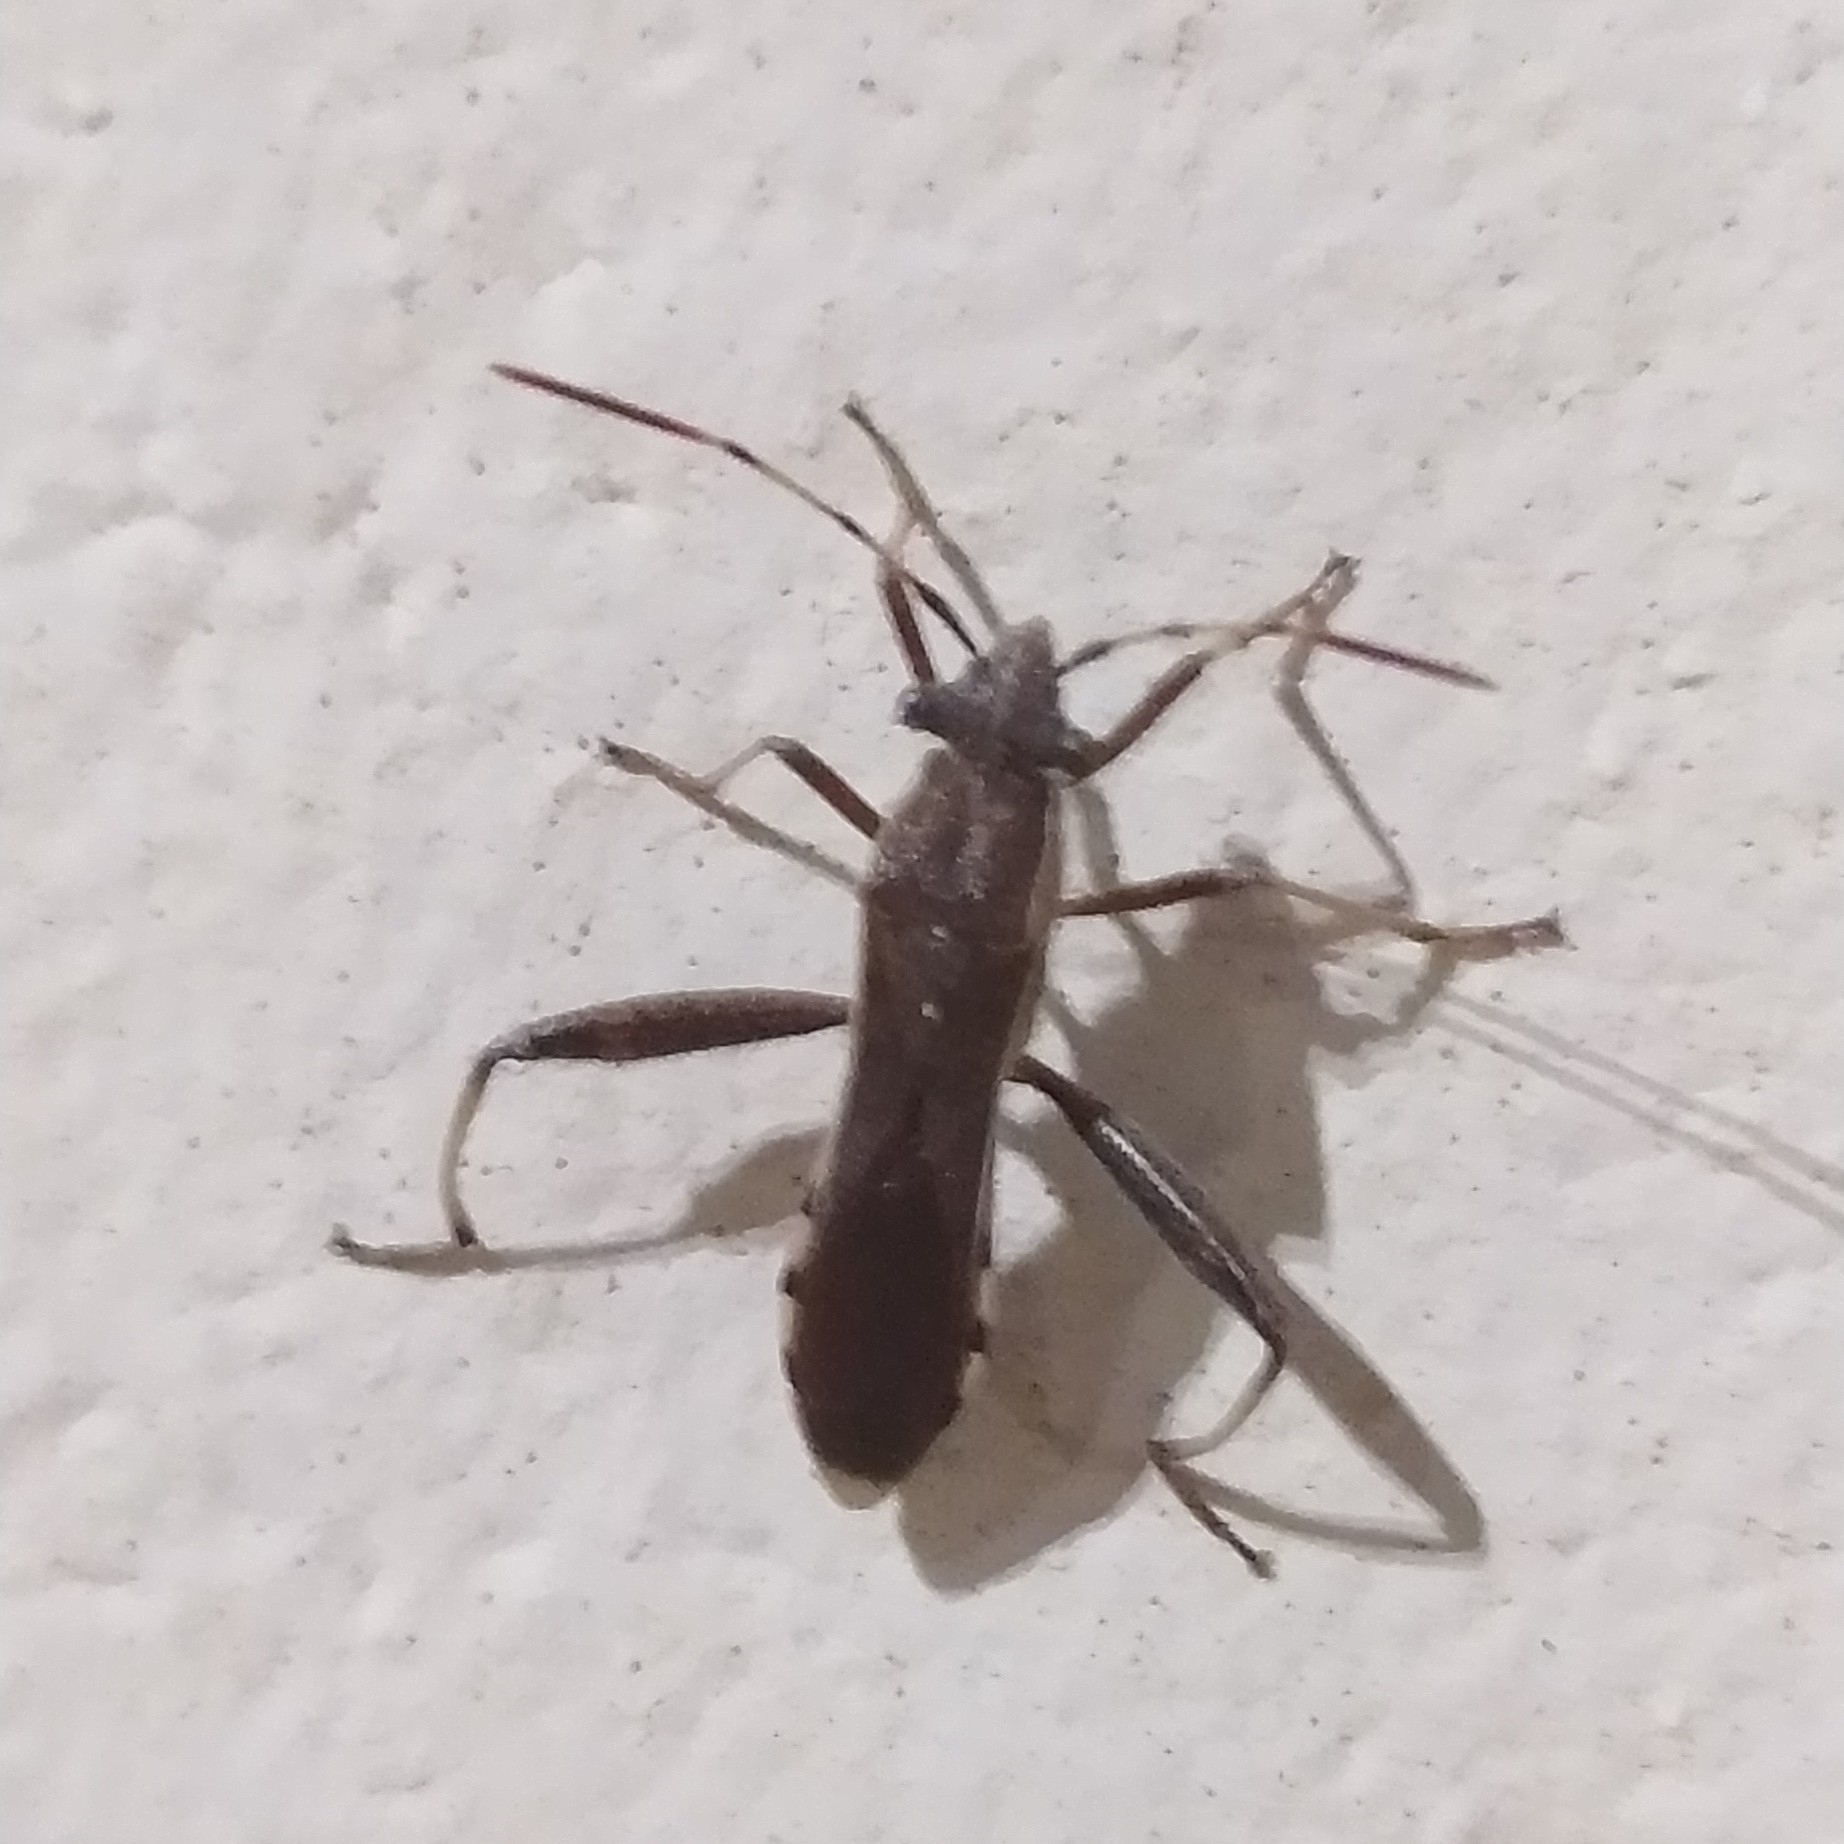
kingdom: Animalia
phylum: Arthropoda
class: Insecta
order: Hemiptera
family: Alydidae
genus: Camptopus
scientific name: Camptopus lateralis
